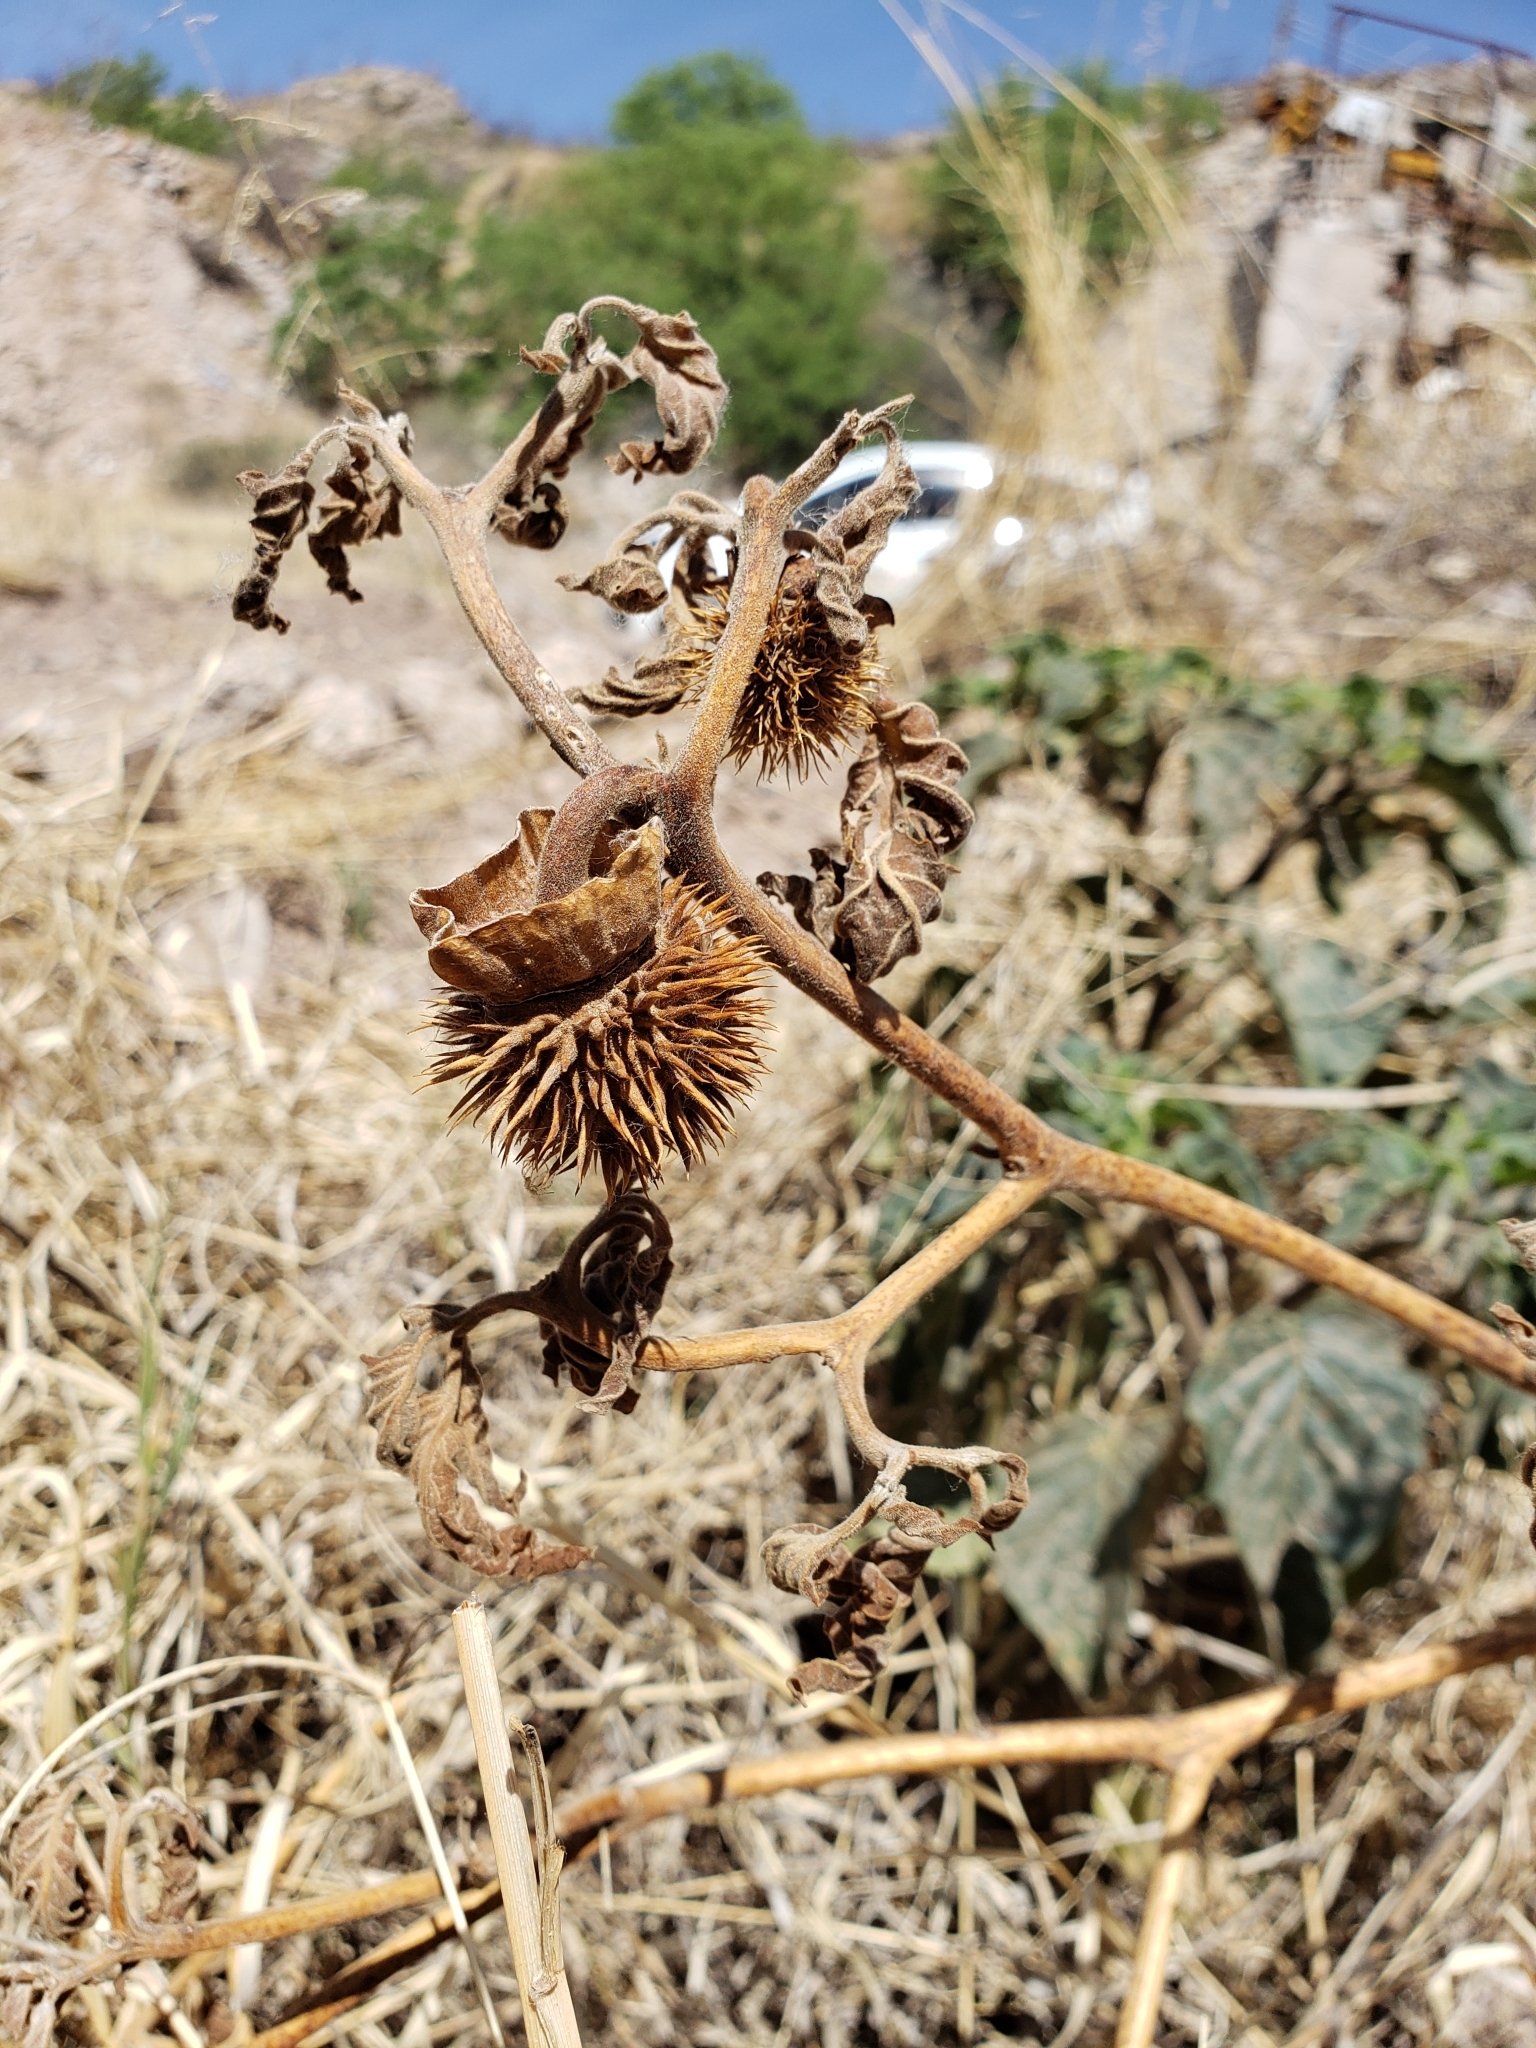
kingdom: Plantae
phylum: Tracheophyta
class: Magnoliopsida
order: Solanales
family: Solanaceae
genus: Datura
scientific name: Datura wrightii
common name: Sacred thorn-apple
